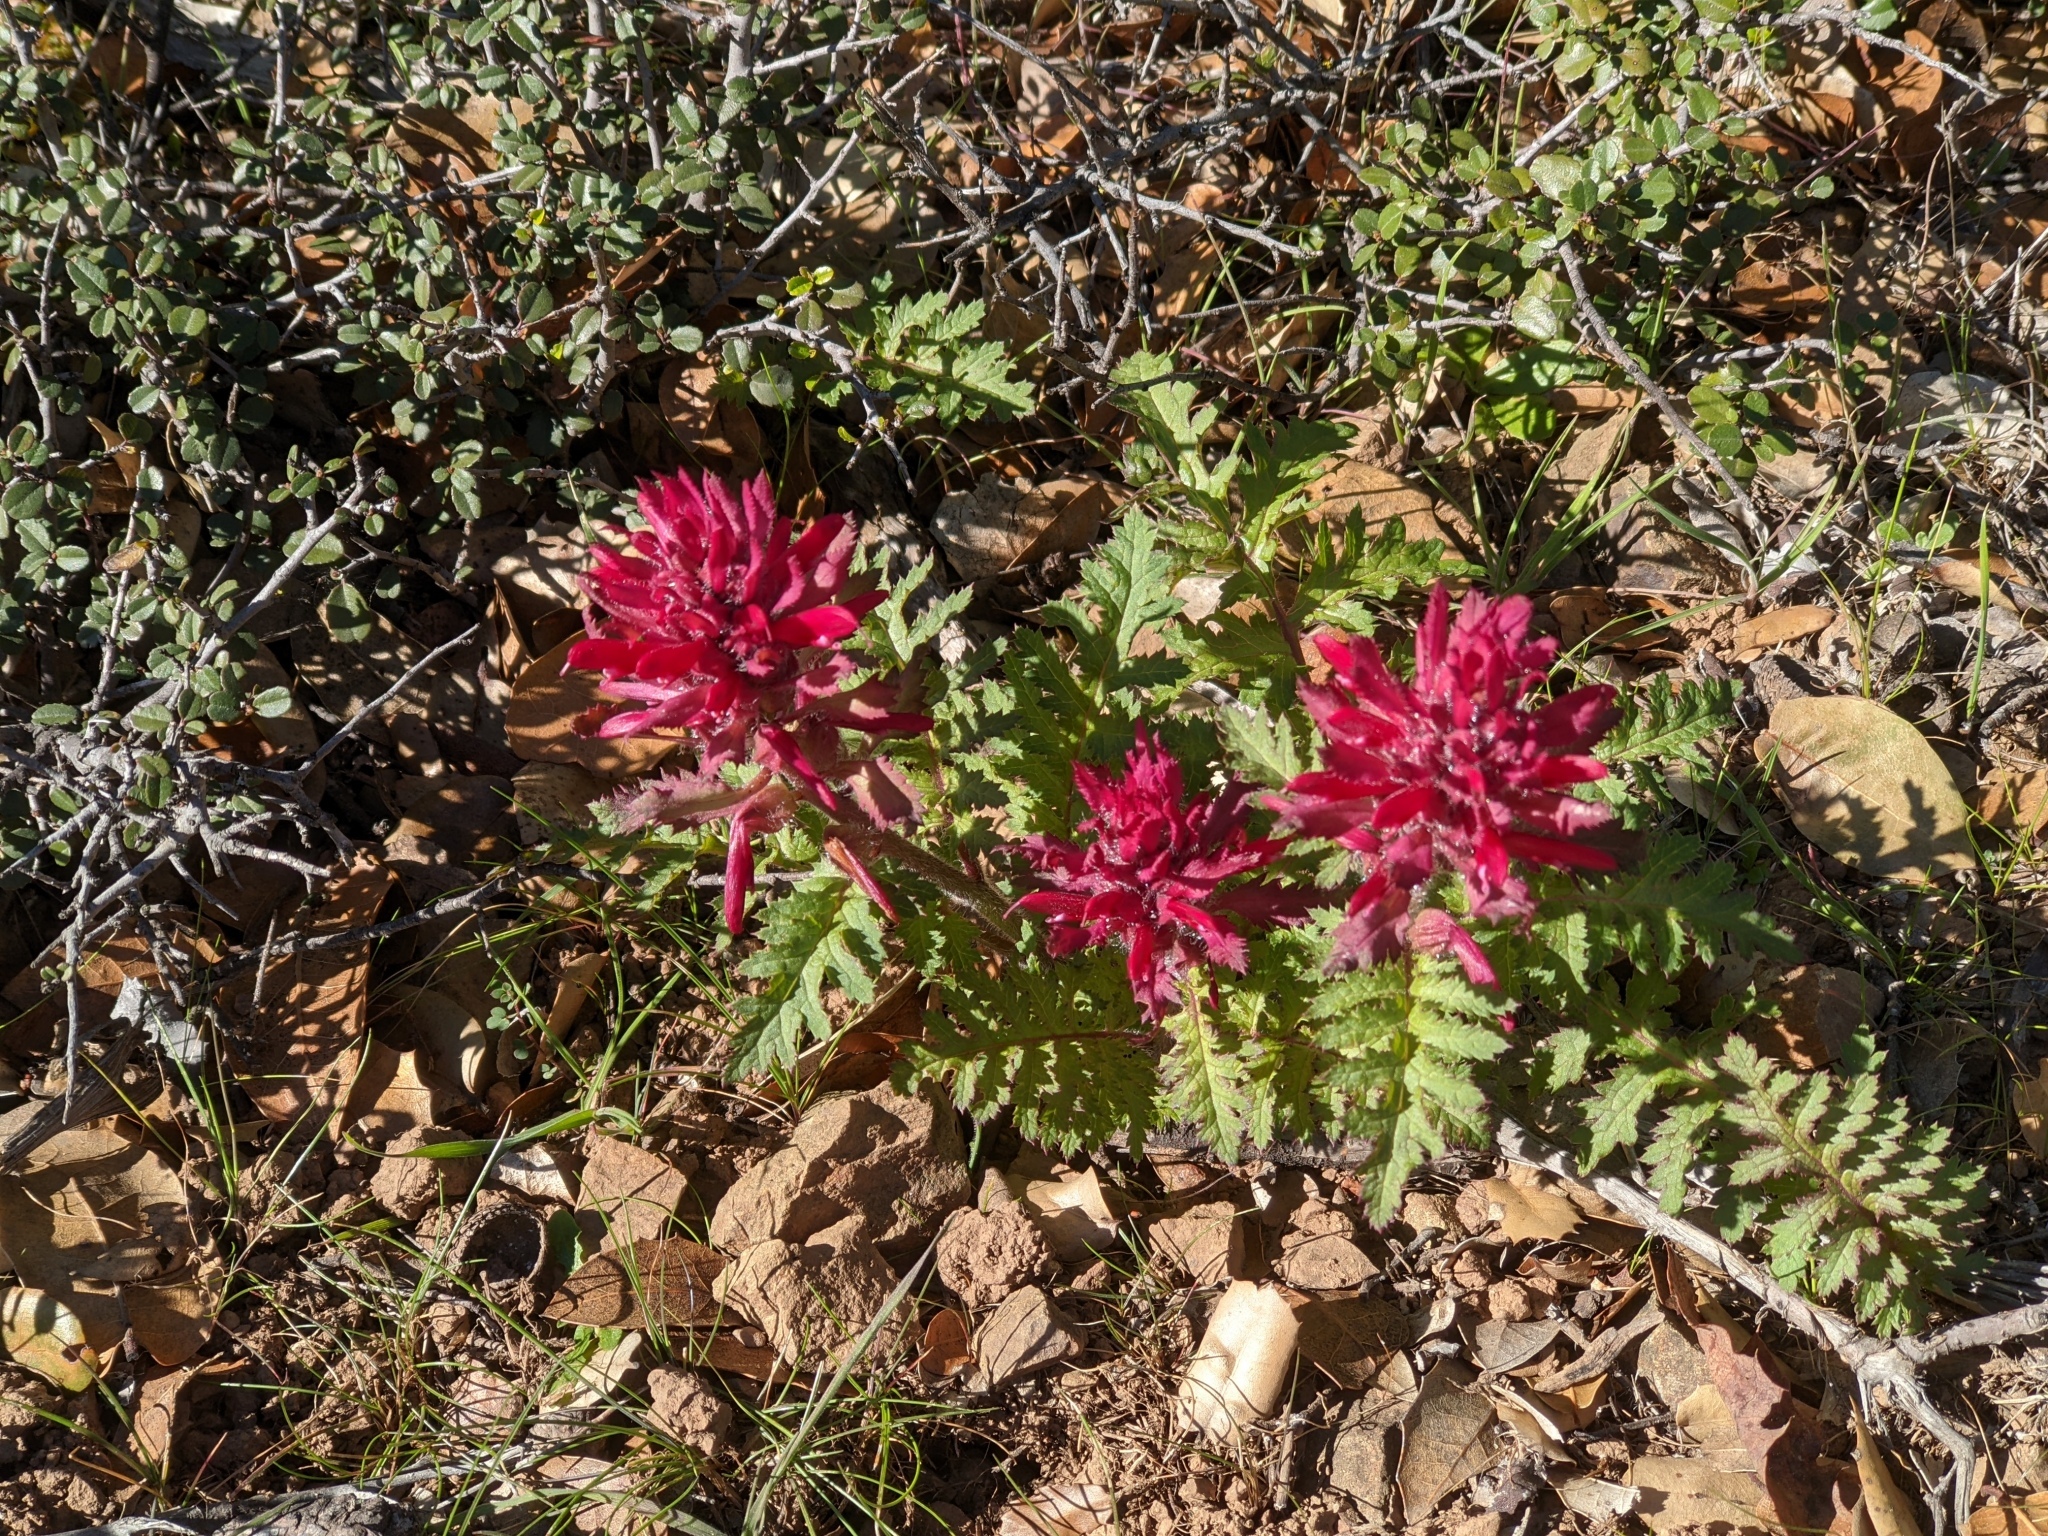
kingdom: Plantae
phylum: Tracheophyta
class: Magnoliopsida
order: Lamiales
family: Orobanchaceae
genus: Pedicularis
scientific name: Pedicularis densiflora
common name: Indian warrior
